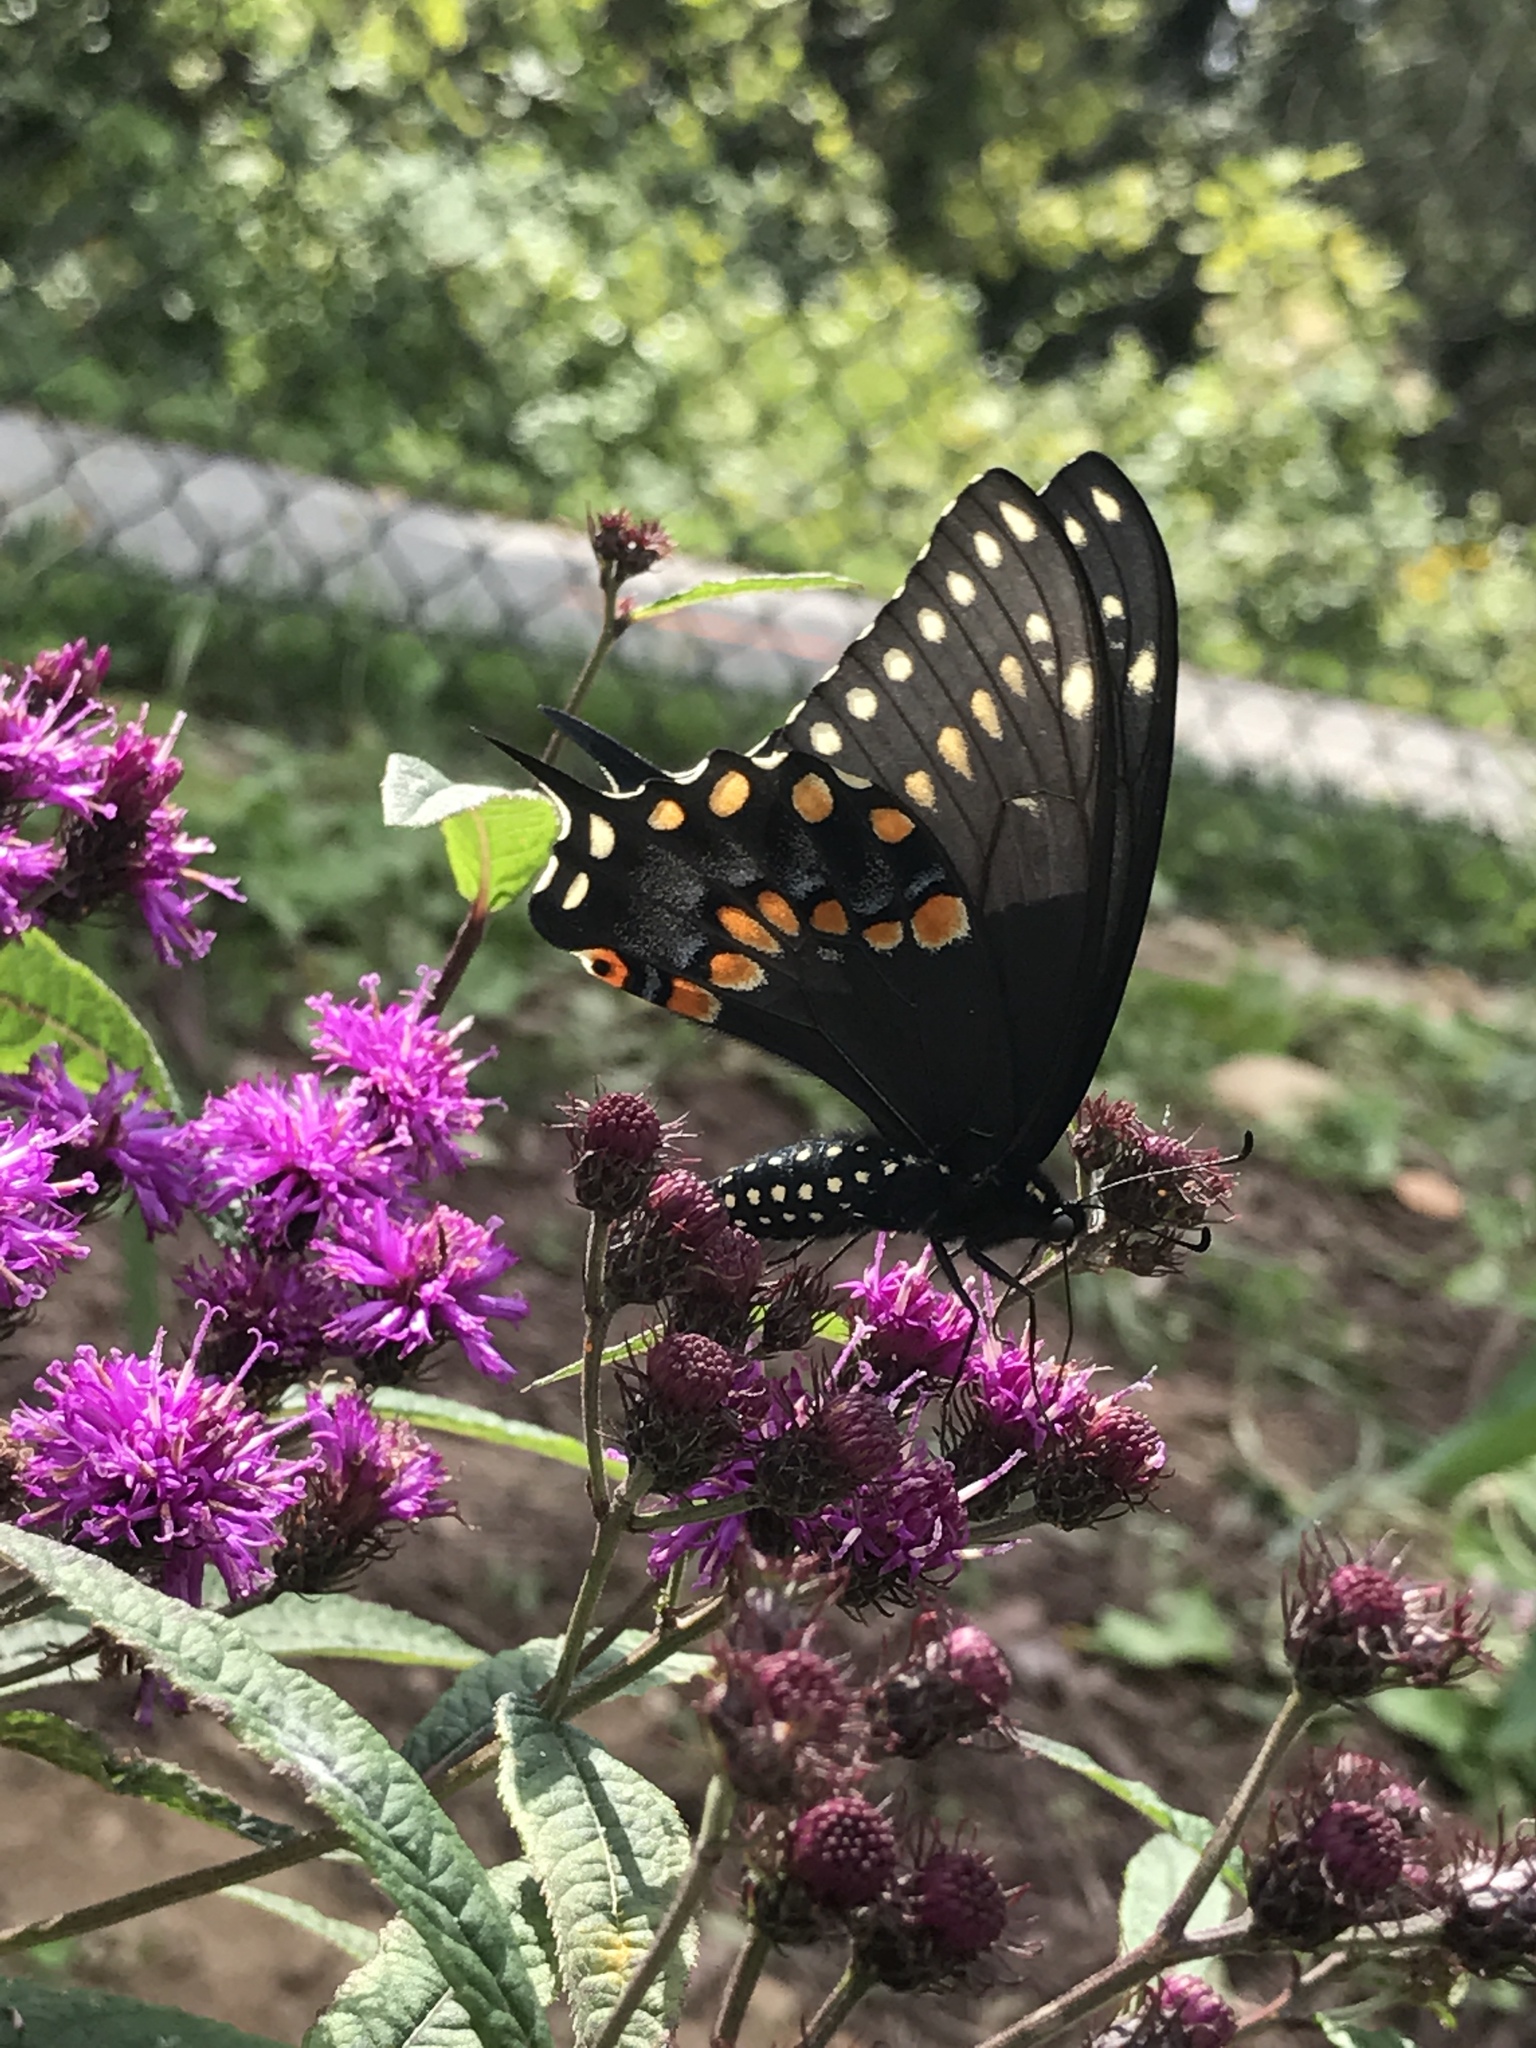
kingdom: Animalia
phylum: Arthropoda
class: Insecta
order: Lepidoptera
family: Papilionidae
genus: Papilio
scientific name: Papilio polyxenes
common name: Black swallowtail
